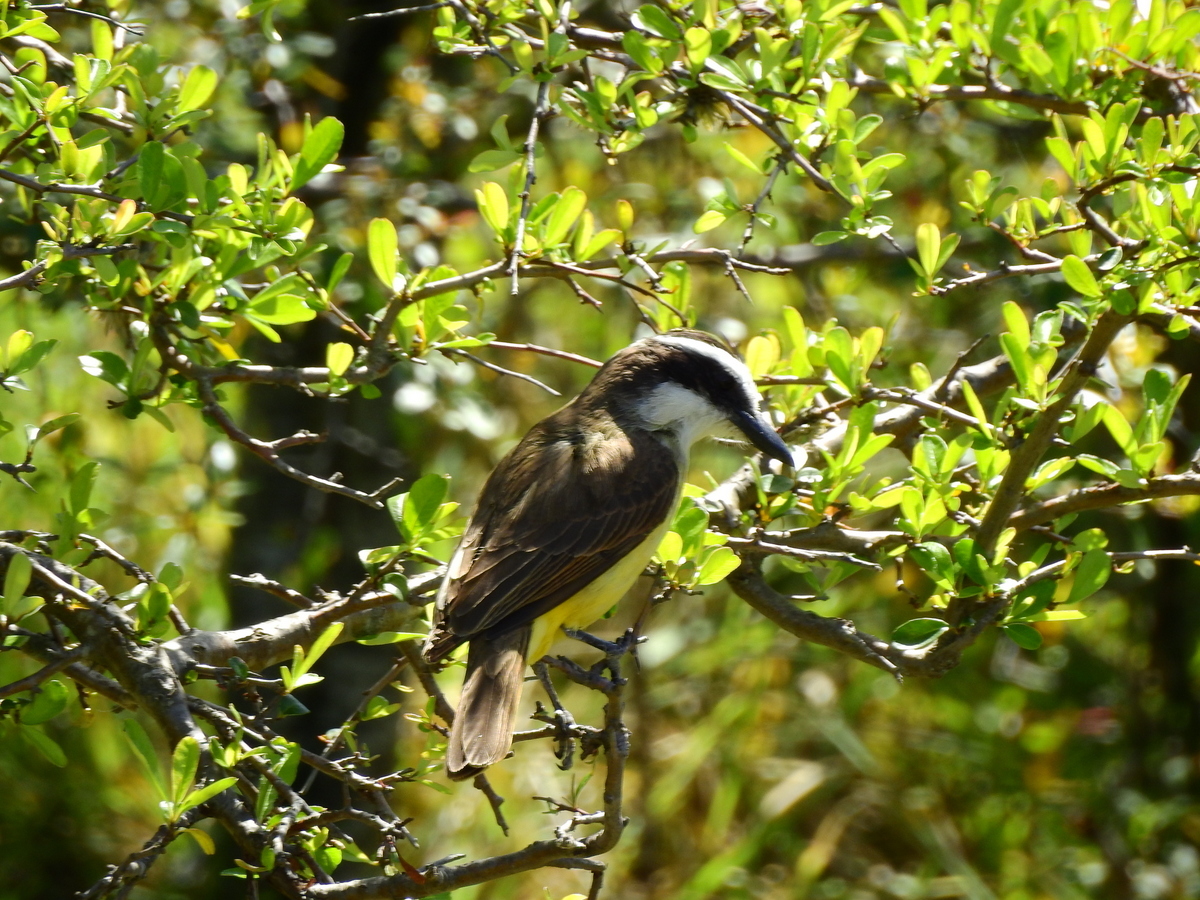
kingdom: Animalia
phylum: Chordata
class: Aves
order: Passeriformes
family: Tyrannidae
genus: Pitangus
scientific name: Pitangus sulphuratus
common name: Great kiskadee
